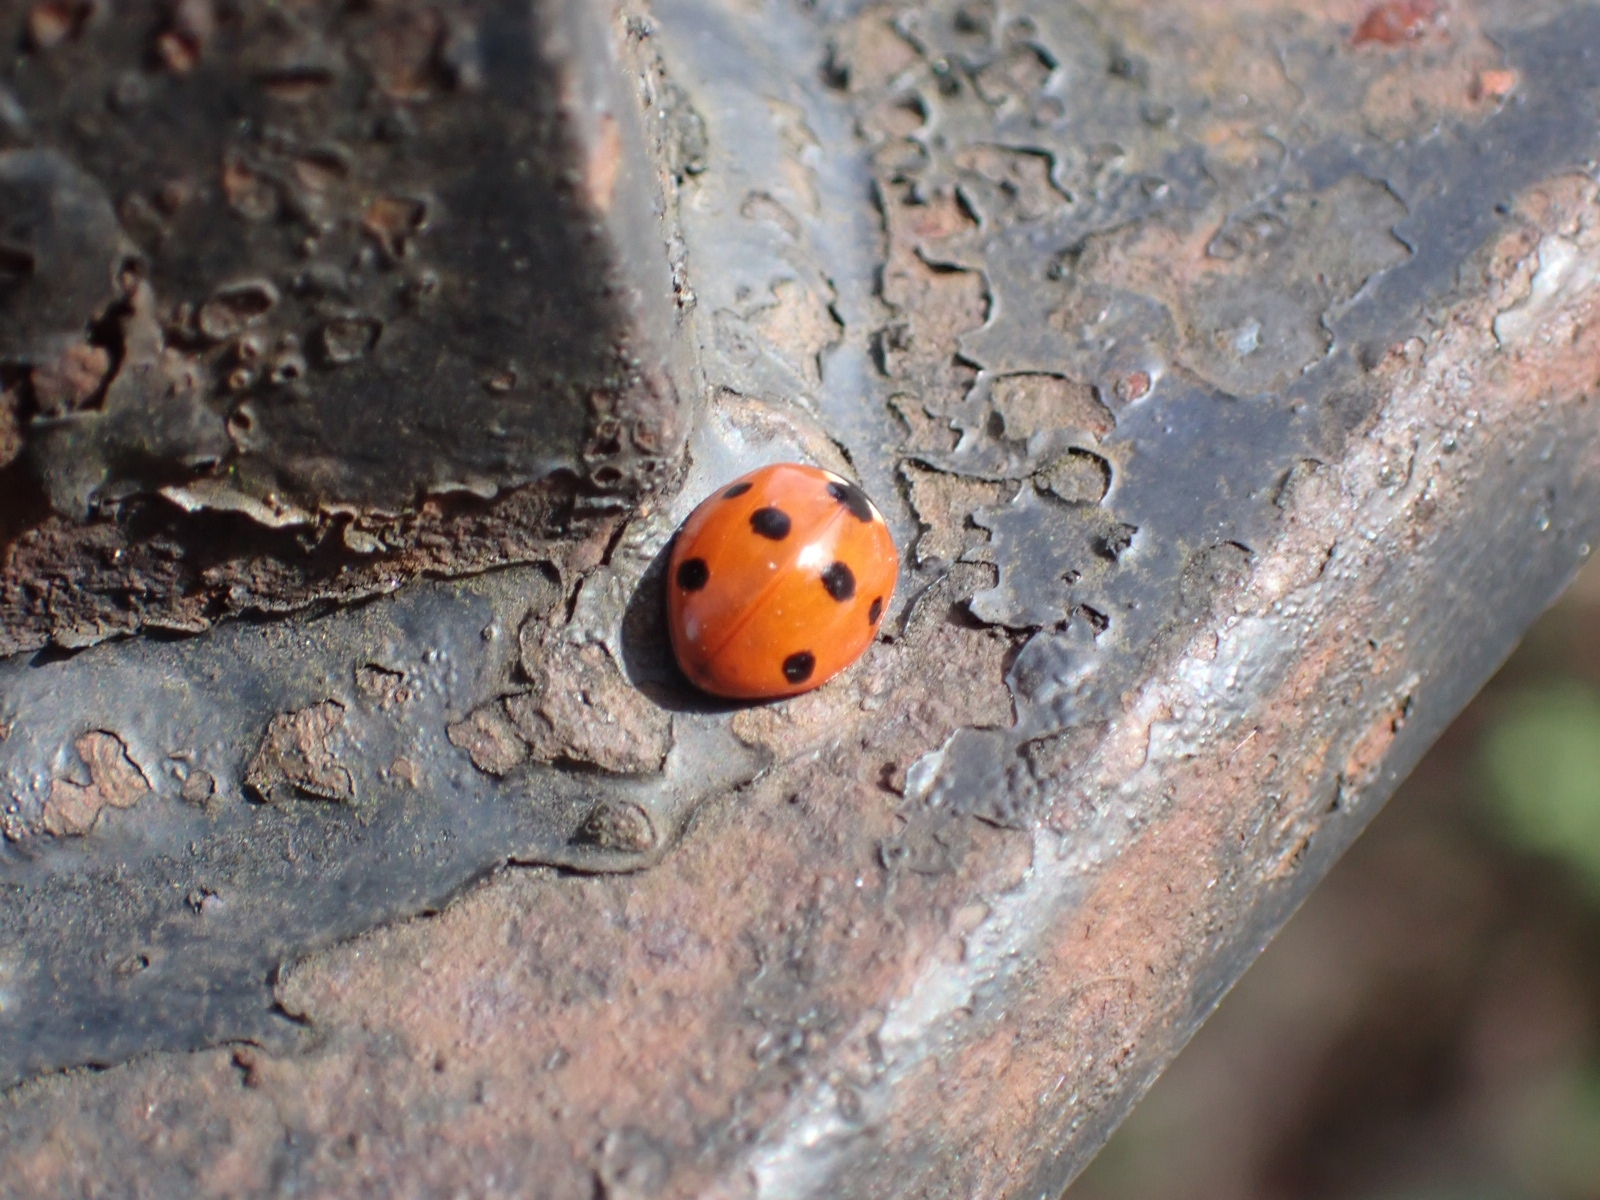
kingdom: Animalia
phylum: Arthropoda
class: Insecta
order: Coleoptera
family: Coccinellidae
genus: Coccinella
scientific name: Coccinella septempunctata
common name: Sevenspotted lady beetle
